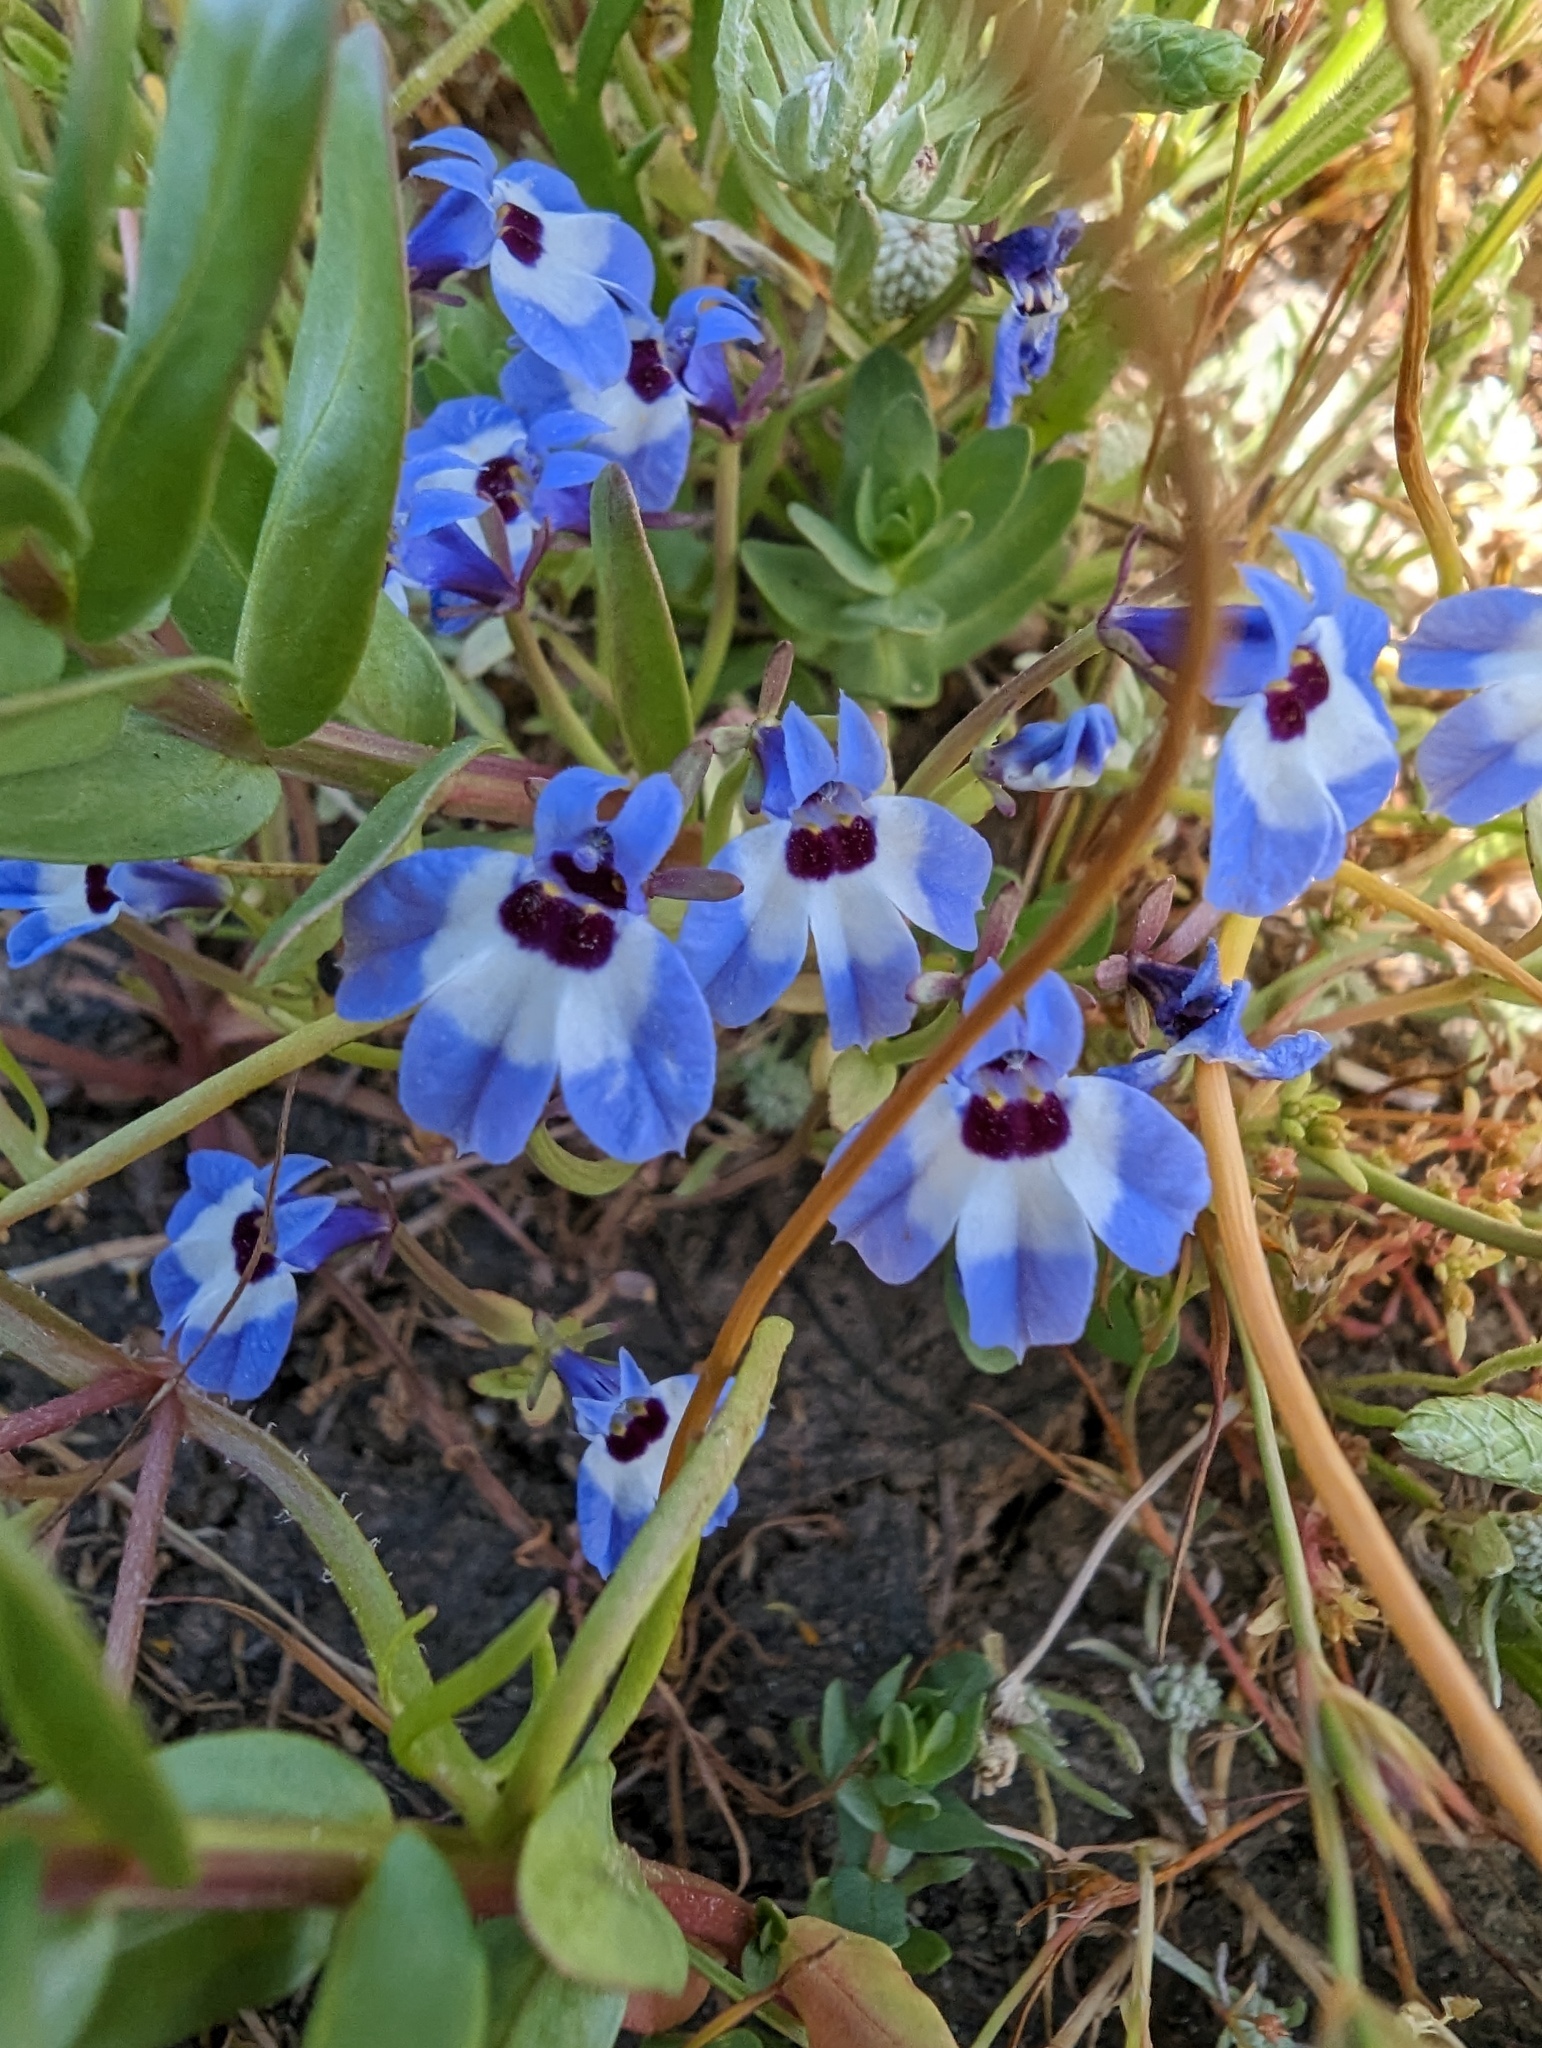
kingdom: Plantae
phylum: Tracheophyta
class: Magnoliopsida
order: Asterales
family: Campanulaceae
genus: Downingia
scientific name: Downingia concolor
